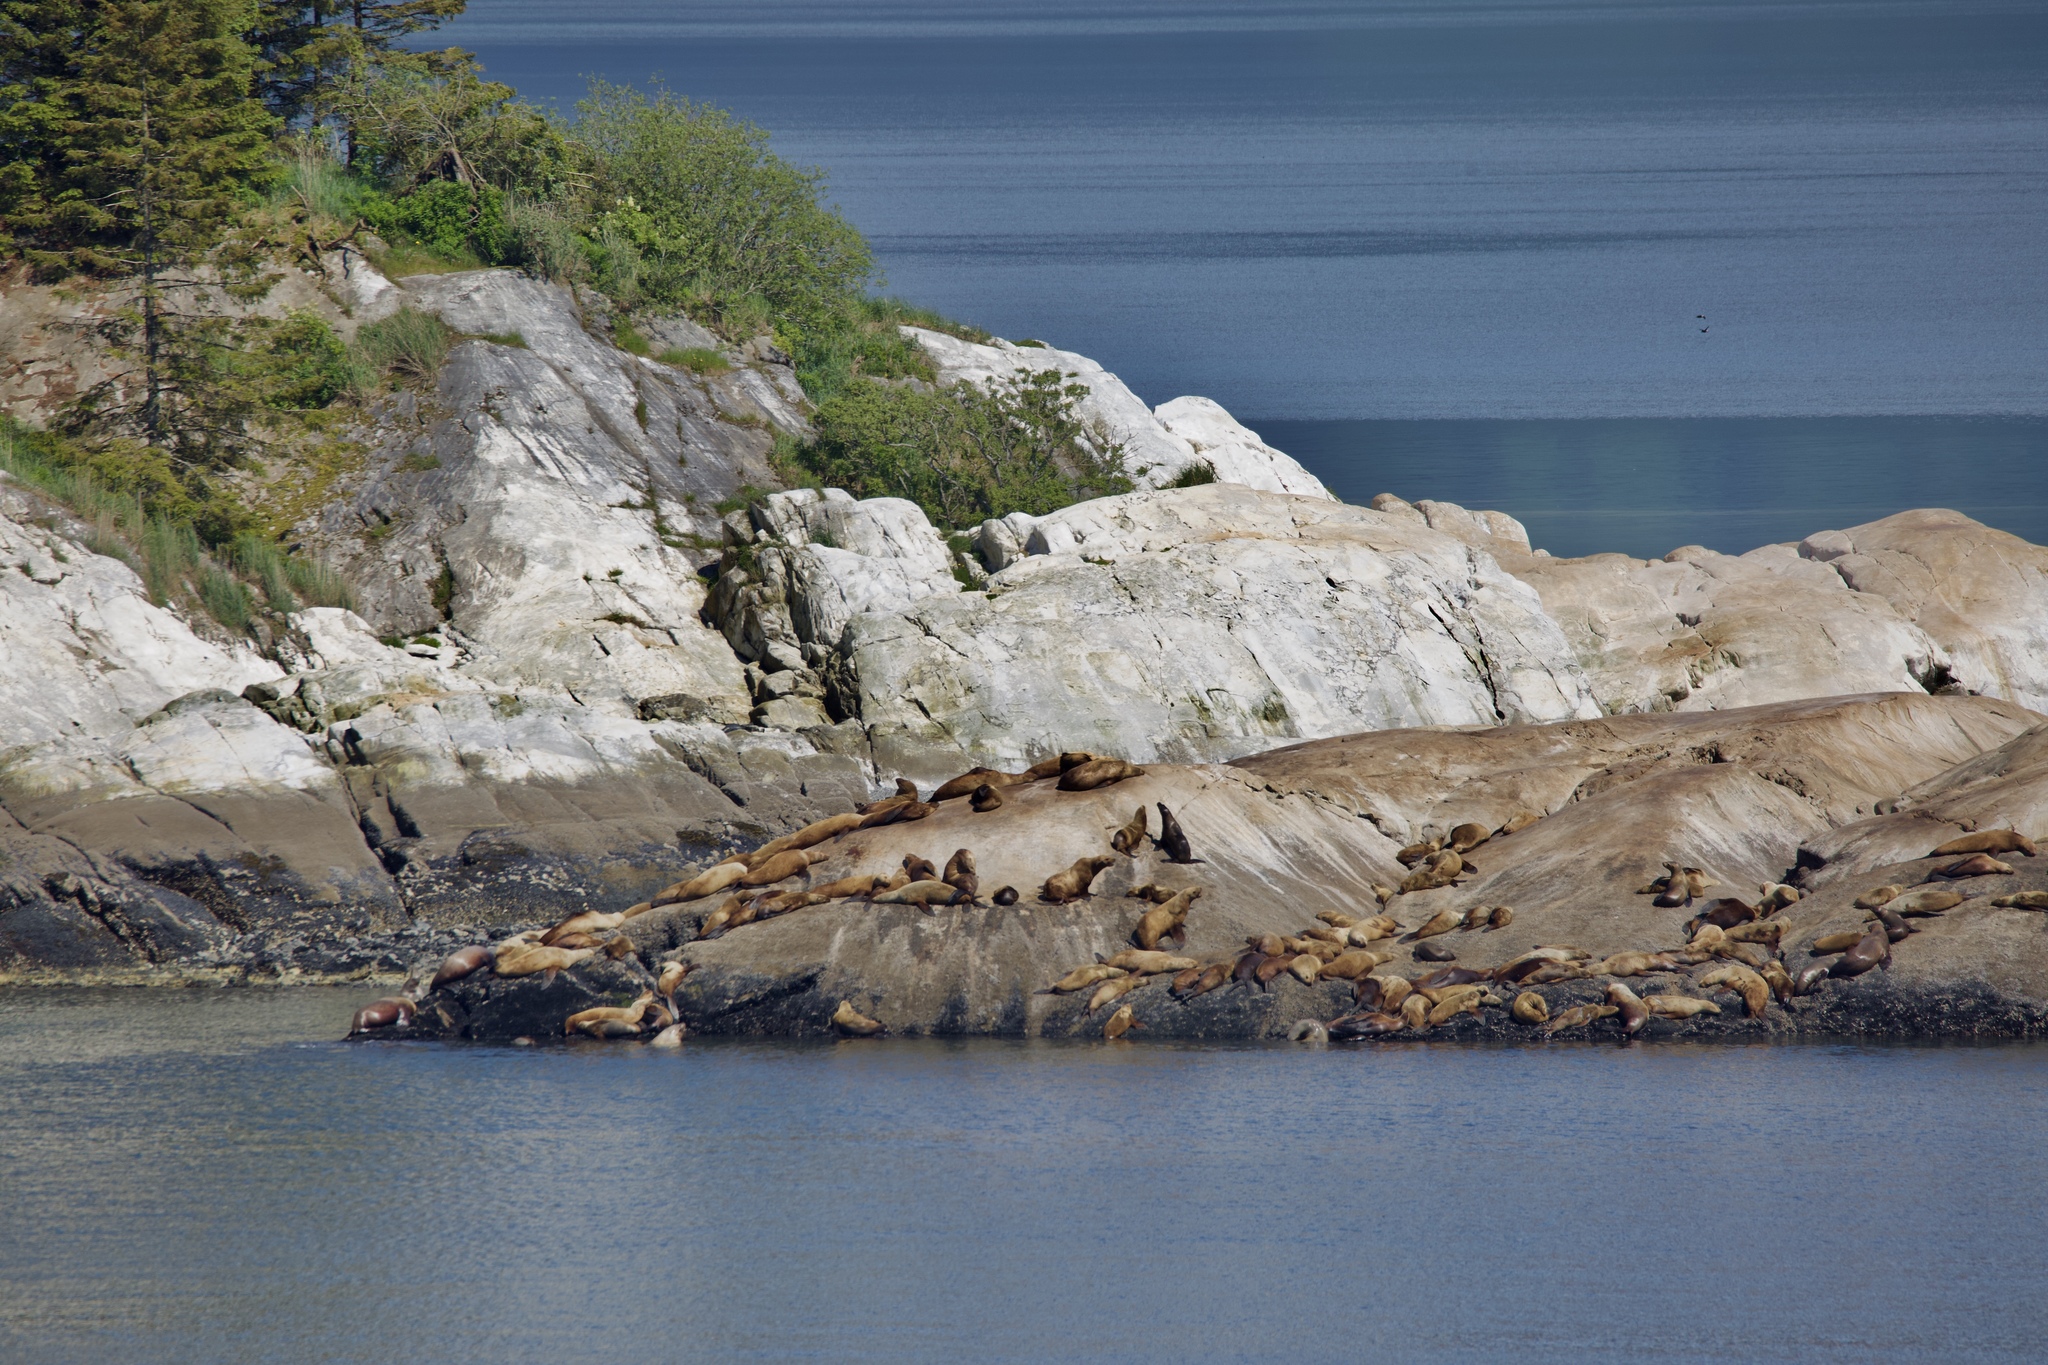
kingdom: Animalia
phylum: Chordata
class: Mammalia
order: Carnivora
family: Otariidae
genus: Eumetopias
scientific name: Eumetopias jubatus
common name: Steller sea lion
